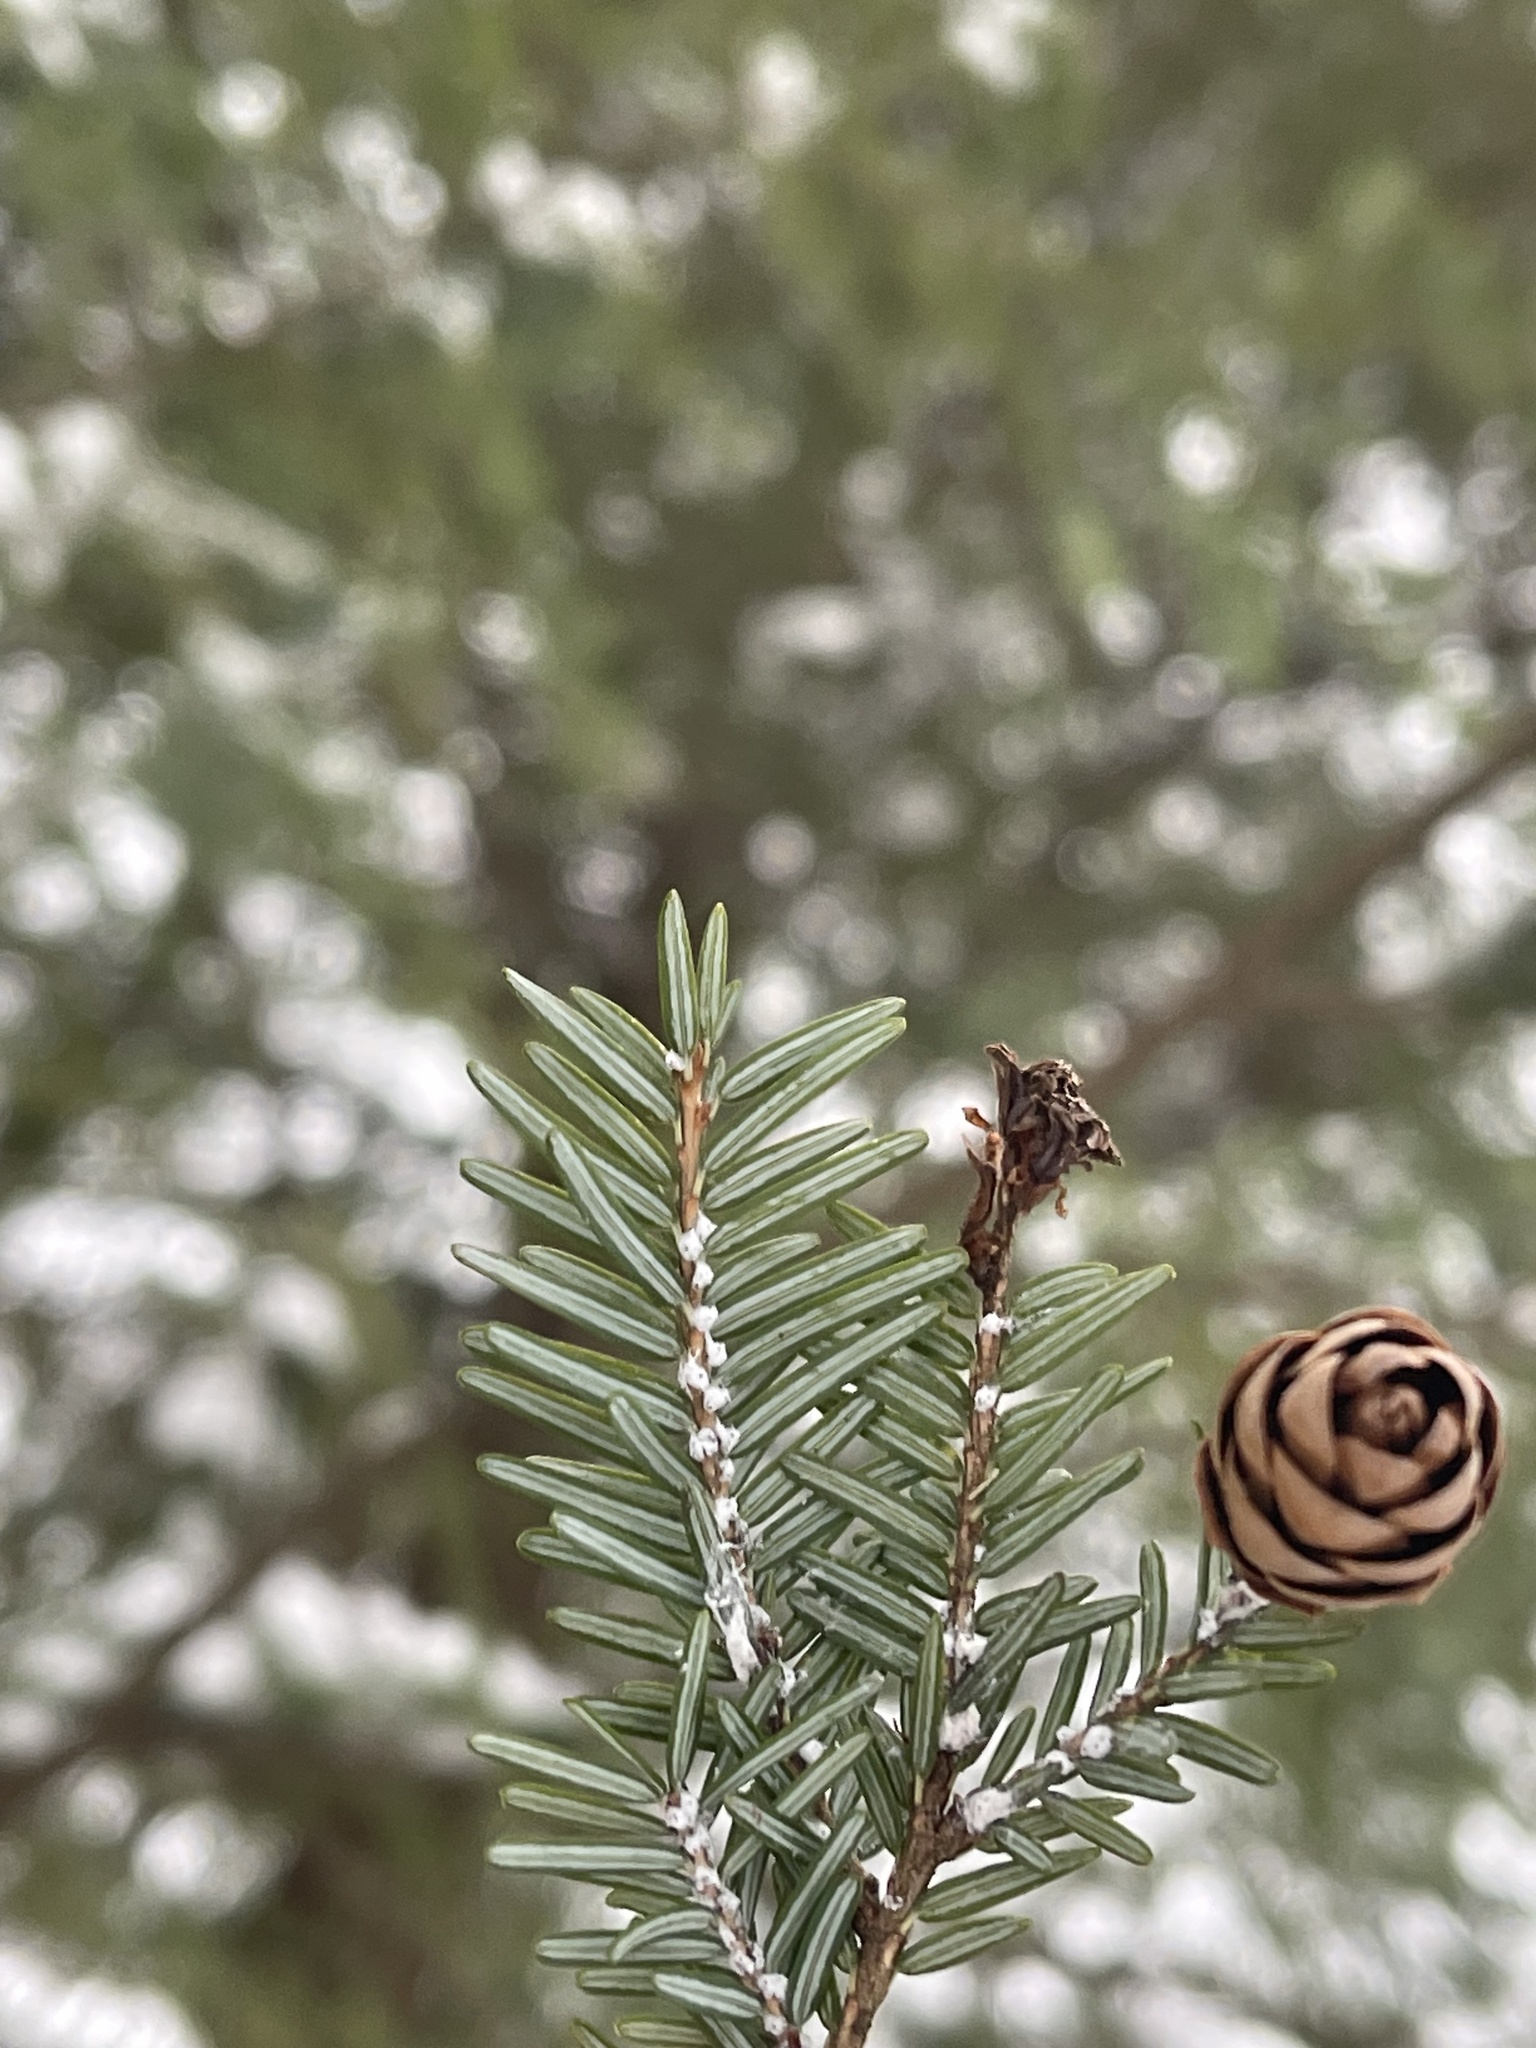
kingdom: Animalia
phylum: Arthropoda
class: Insecta
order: Hemiptera
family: Adelgidae
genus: Adelges
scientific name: Adelges tsugae
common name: Hemlock woolly adelgid
